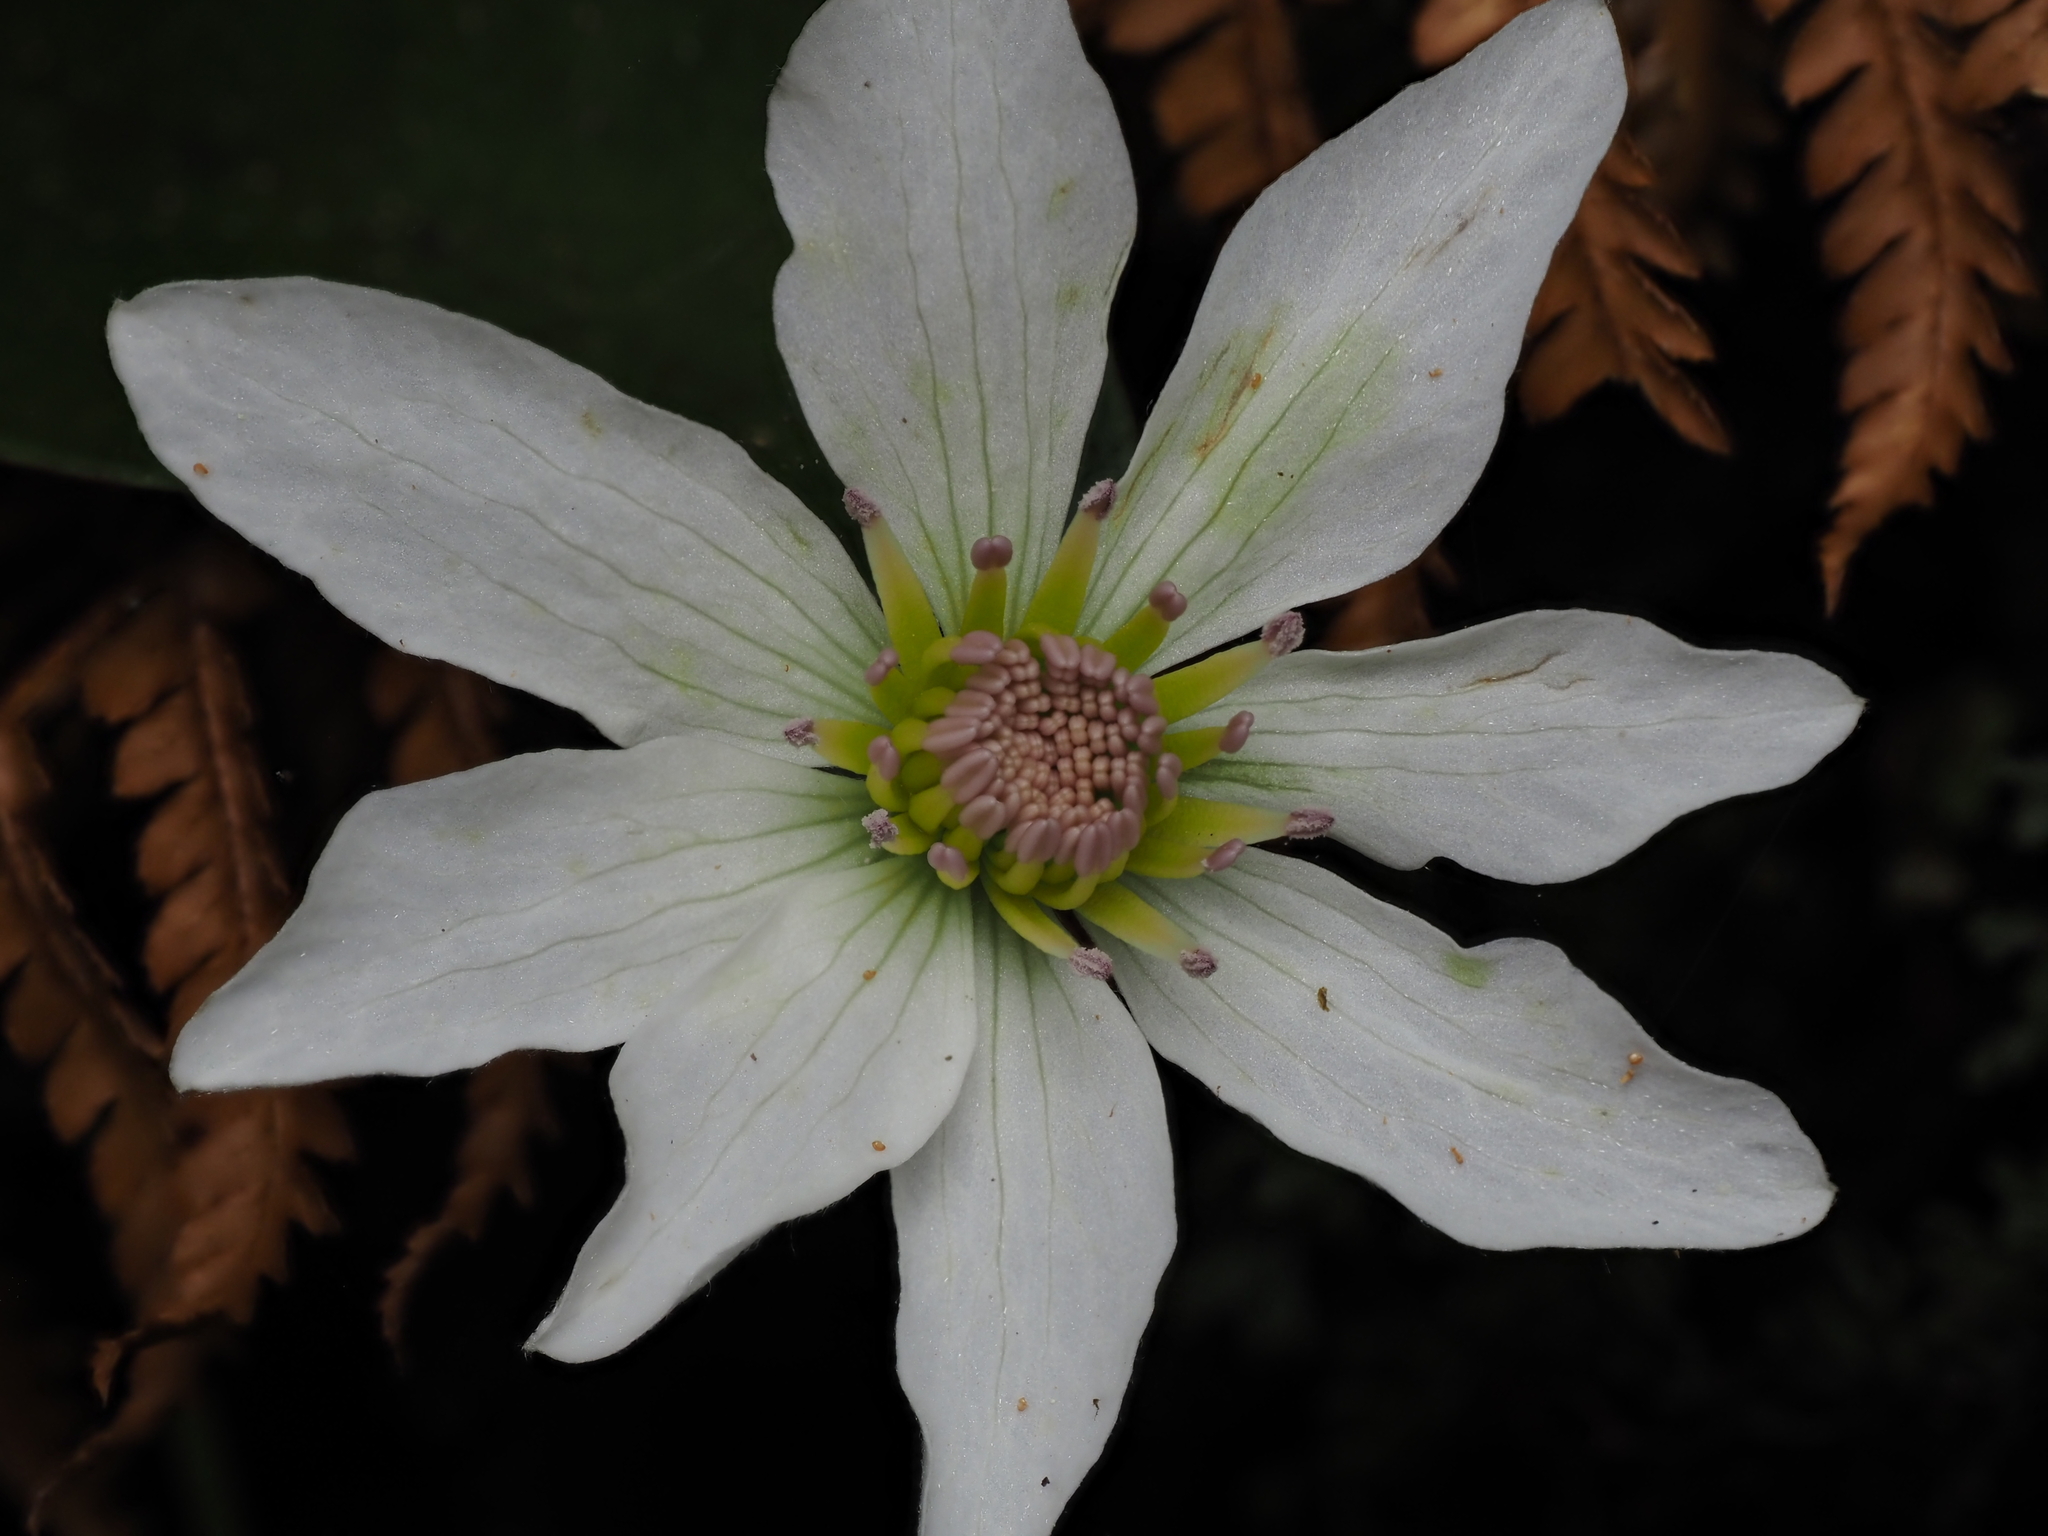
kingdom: Plantae
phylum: Tracheophyta
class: Magnoliopsida
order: Ranunculales
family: Ranunculaceae
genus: Clematis
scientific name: Clematis paniculata
